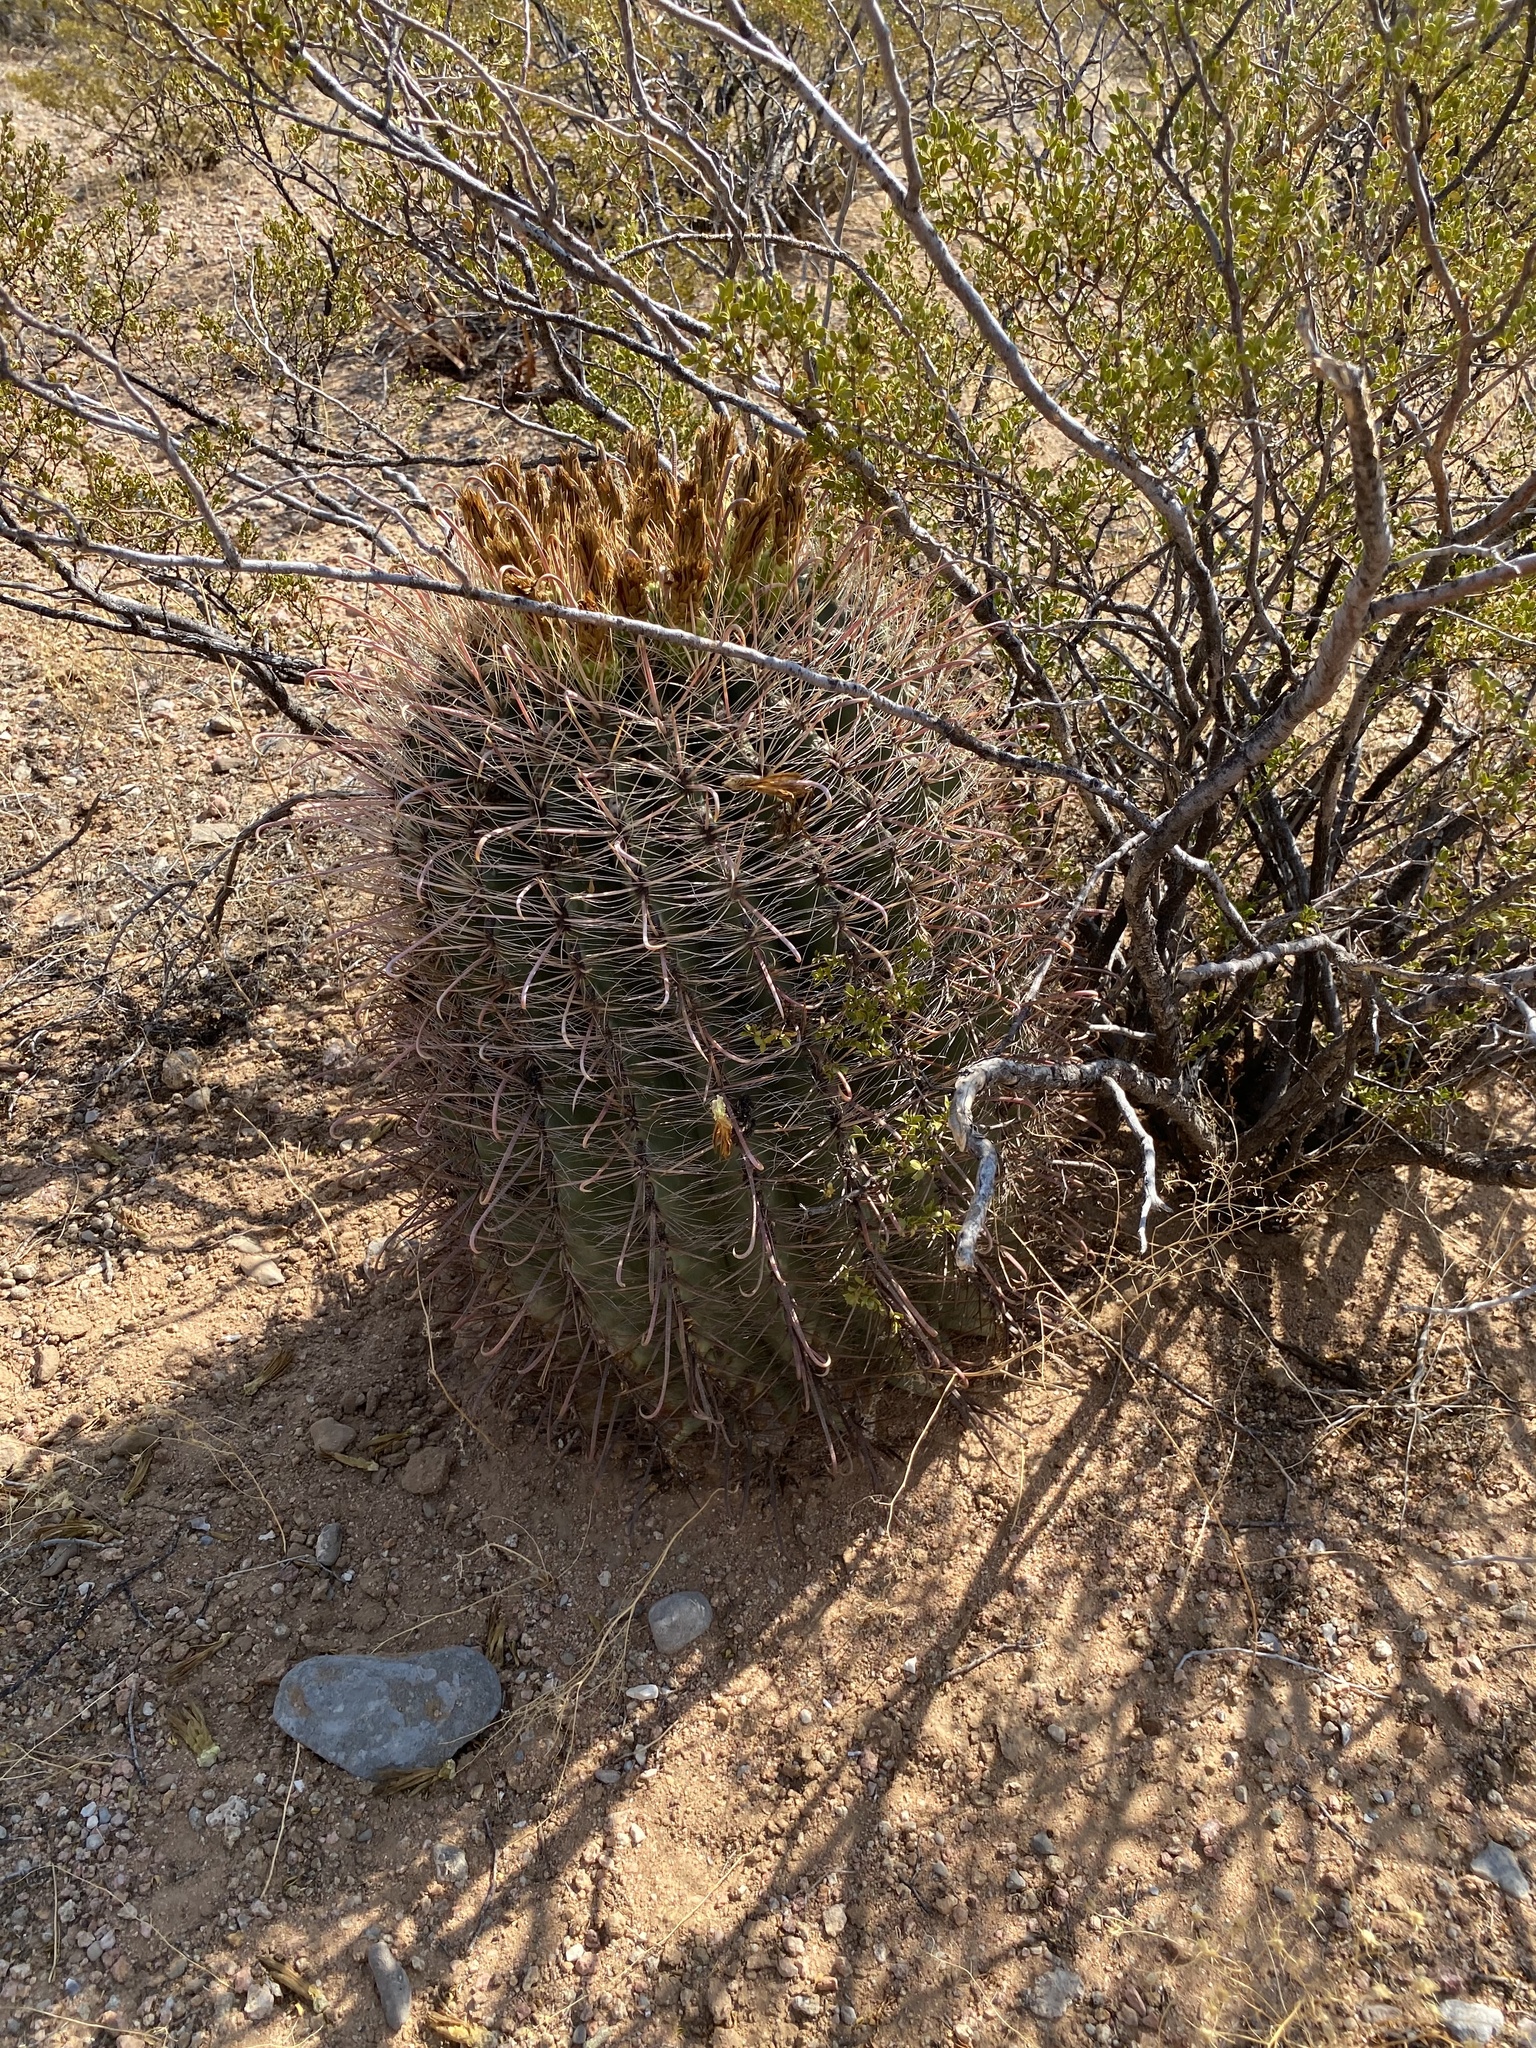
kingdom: Plantae
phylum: Tracheophyta
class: Magnoliopsida
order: Caryophyllales
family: Cactaceae
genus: Ferocactus
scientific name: Ferocactus wislizeni
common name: Candy barrel cactus
